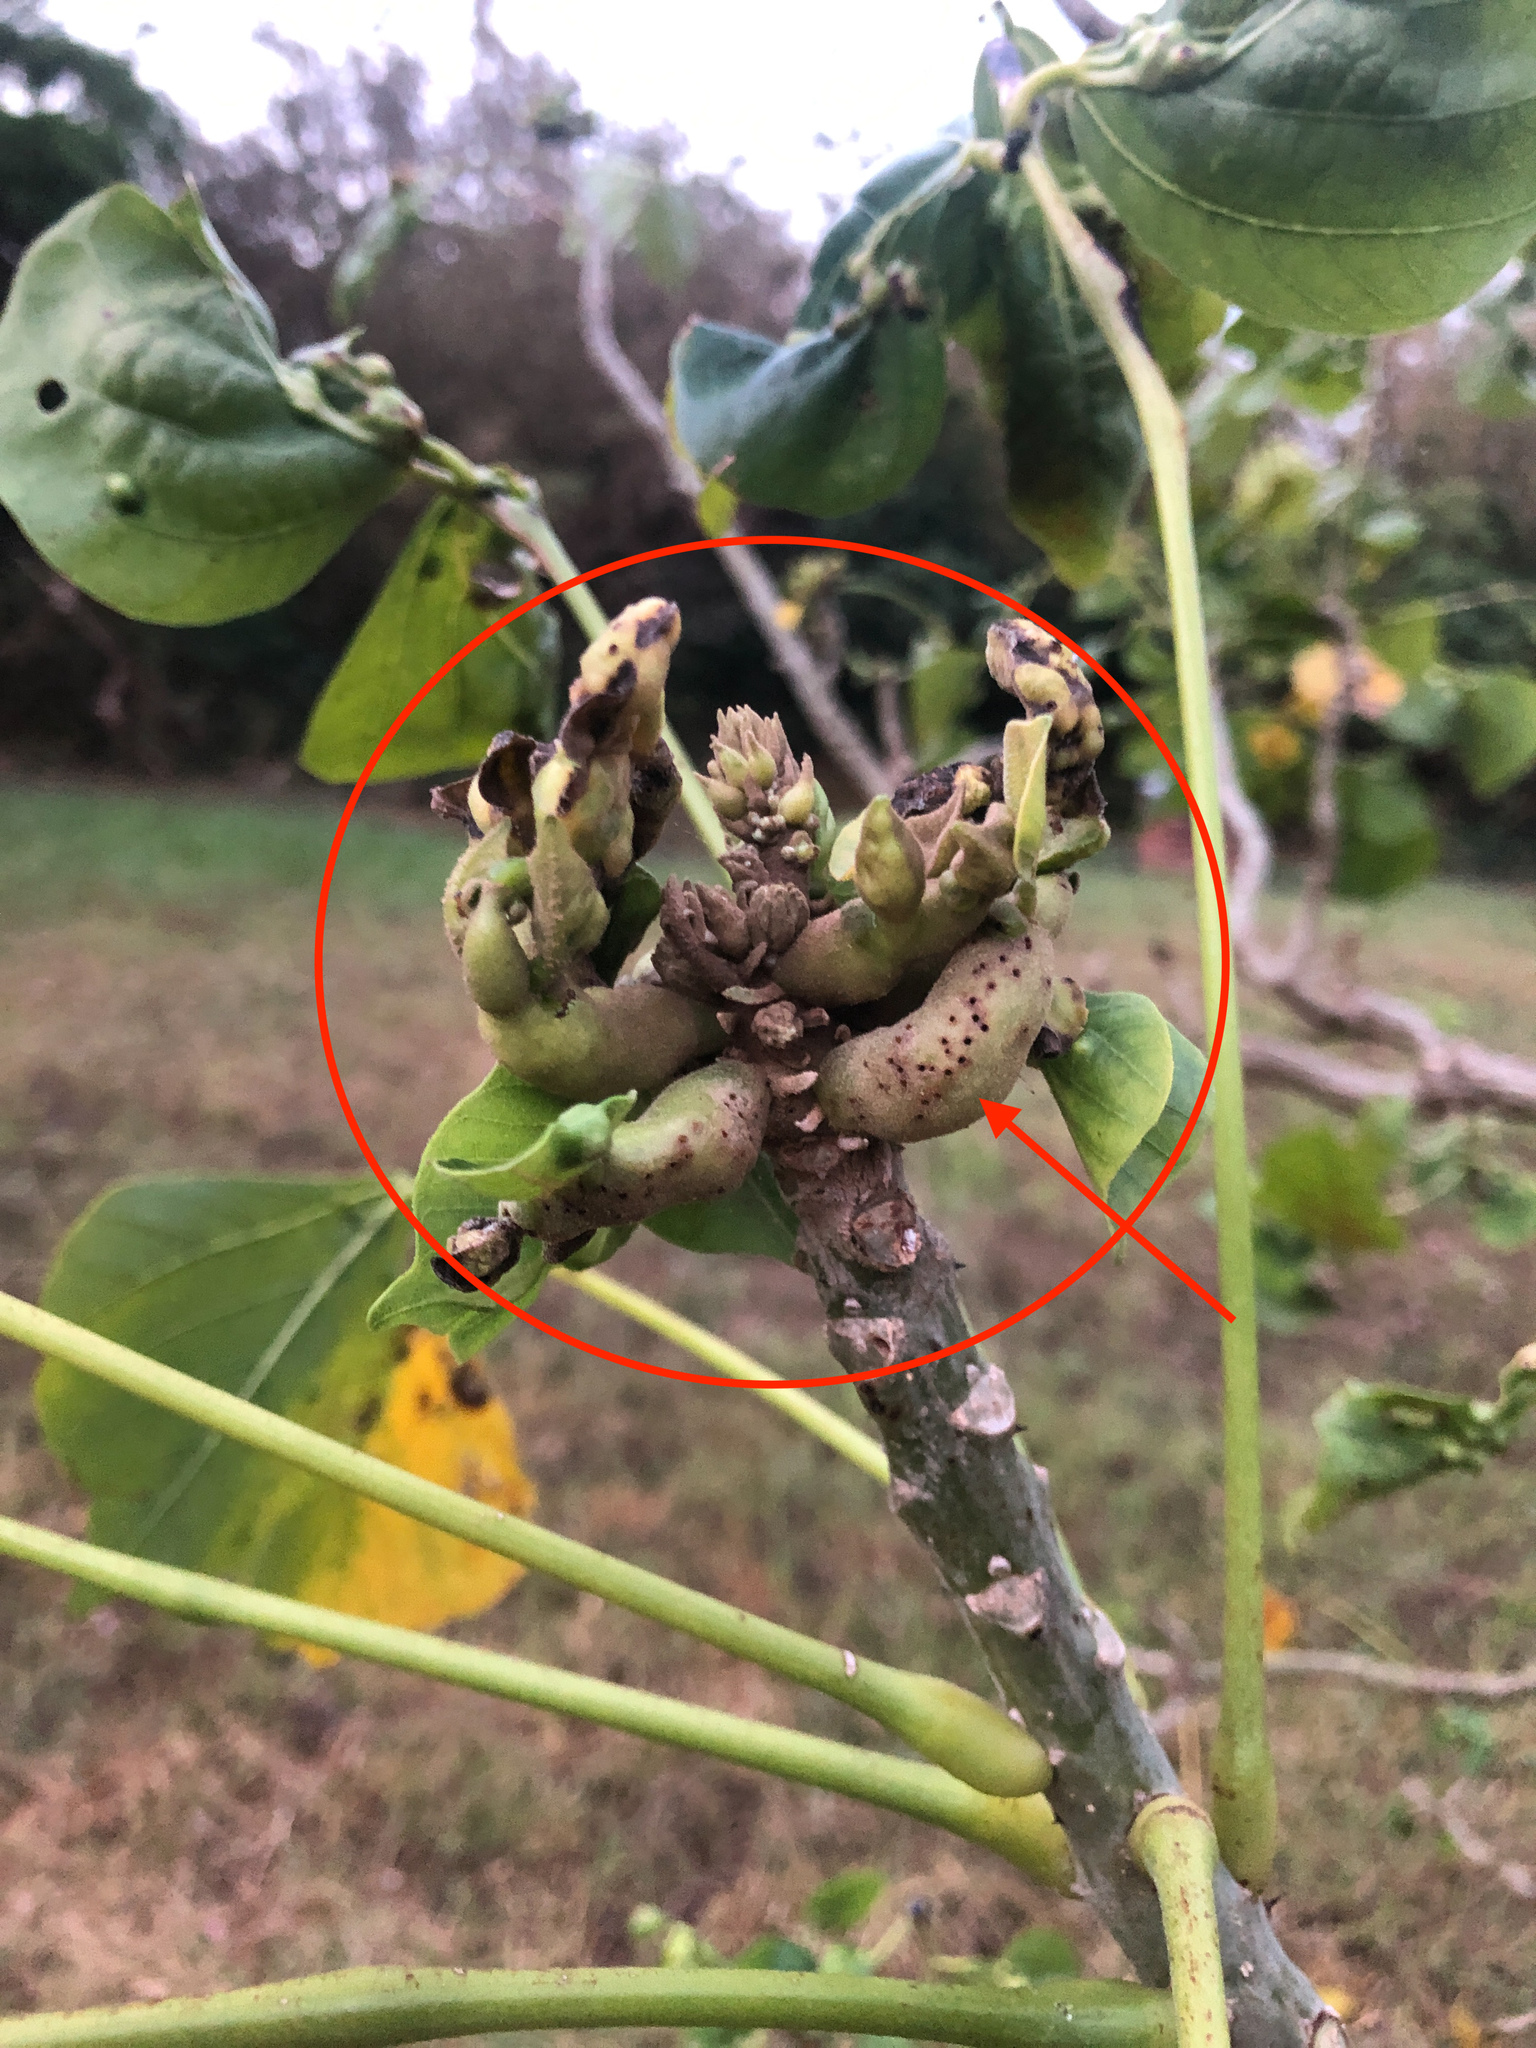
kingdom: Animalia
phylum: Arthropoda
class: Insecta
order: Hymenoptera
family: Eulophidae
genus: Quadrastichus
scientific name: Quadrastichus erythrinae
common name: Erythrina gall wasp
